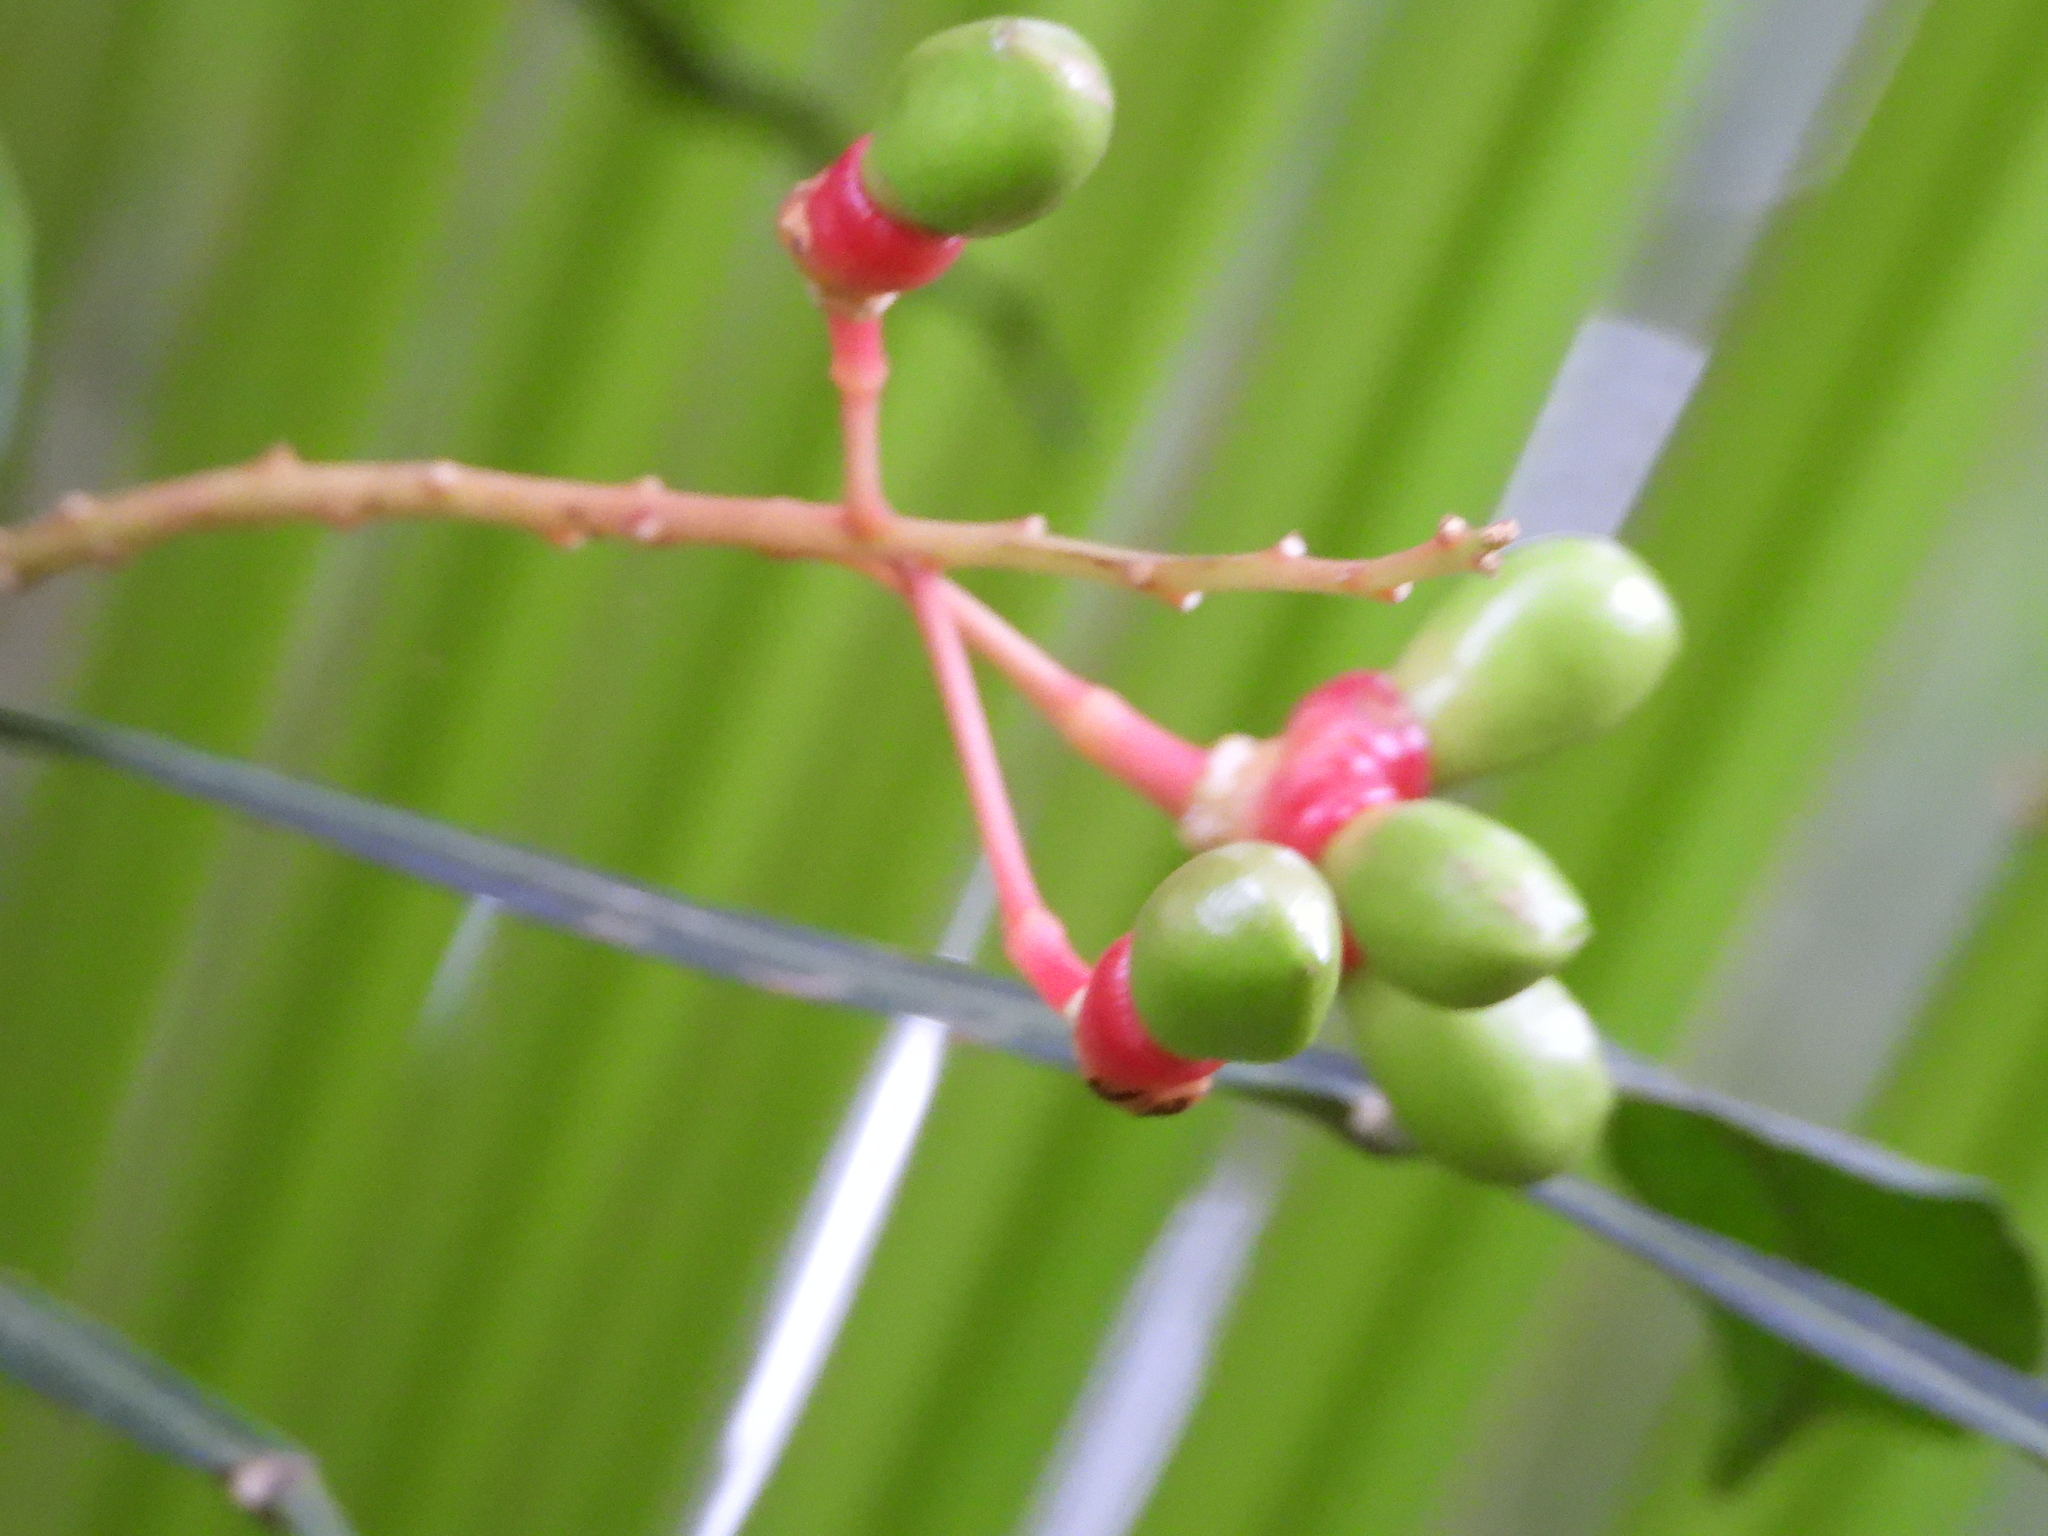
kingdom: Plantae
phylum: Tracheophyta
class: Magnoliopsida
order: Sapindales
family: Simaroubaceae
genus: Quassia
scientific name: Quassia amara
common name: Quassia
